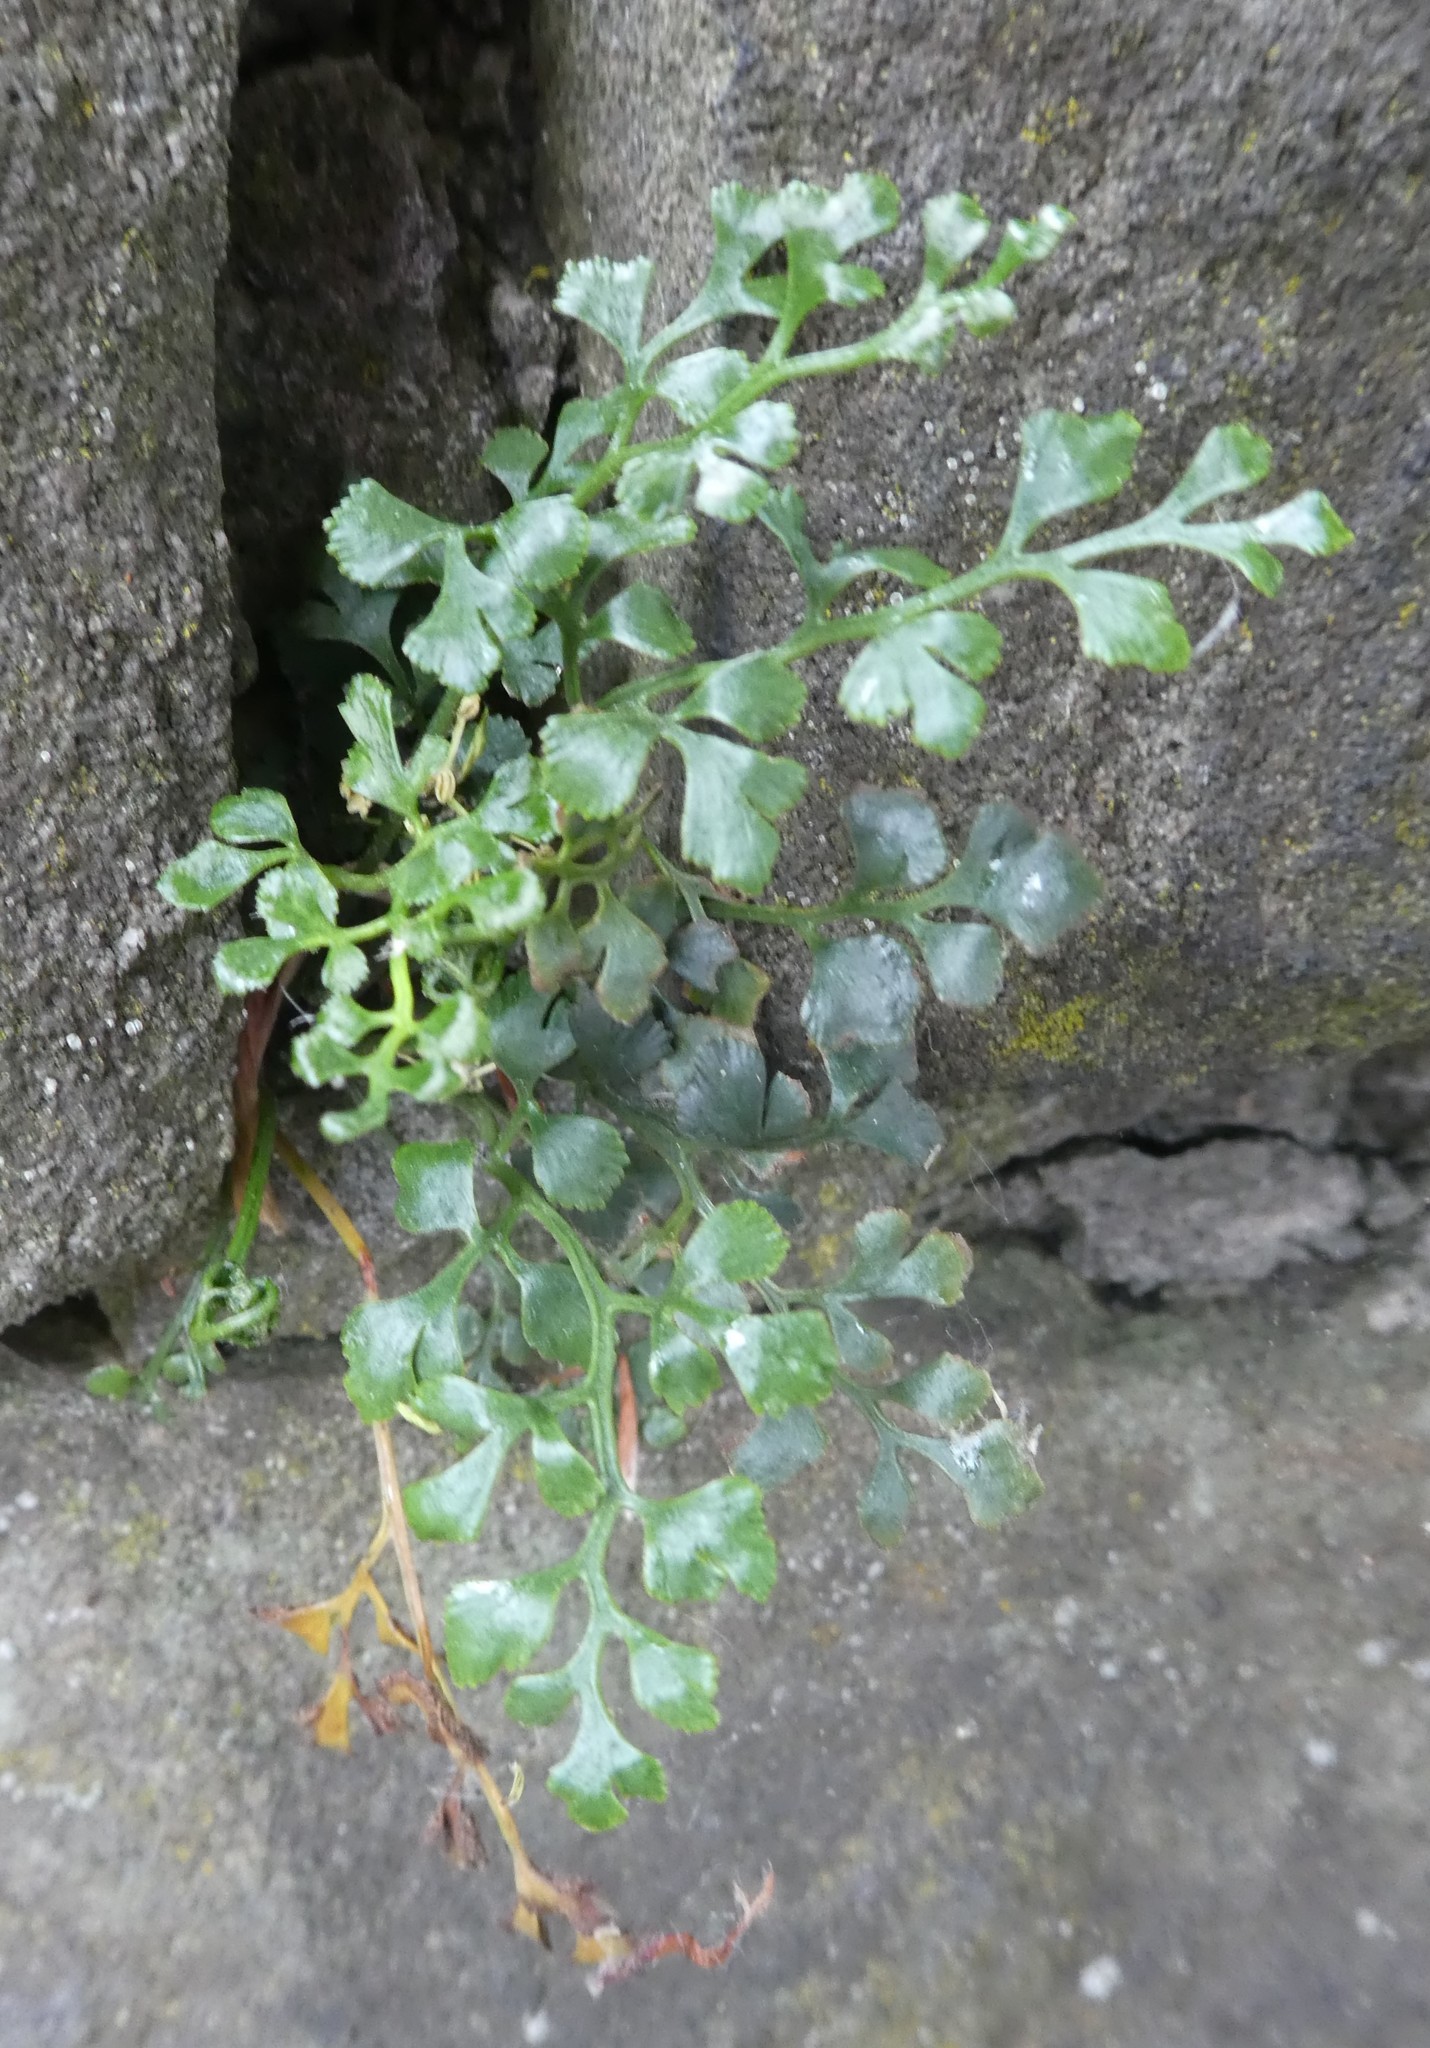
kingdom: Plantae
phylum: Tracheophyta
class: Polypodiopsida
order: Polypodiales
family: Aspleniaceae
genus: Asplenium
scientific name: Asplenium ruta-muraria
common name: Wall-rue
